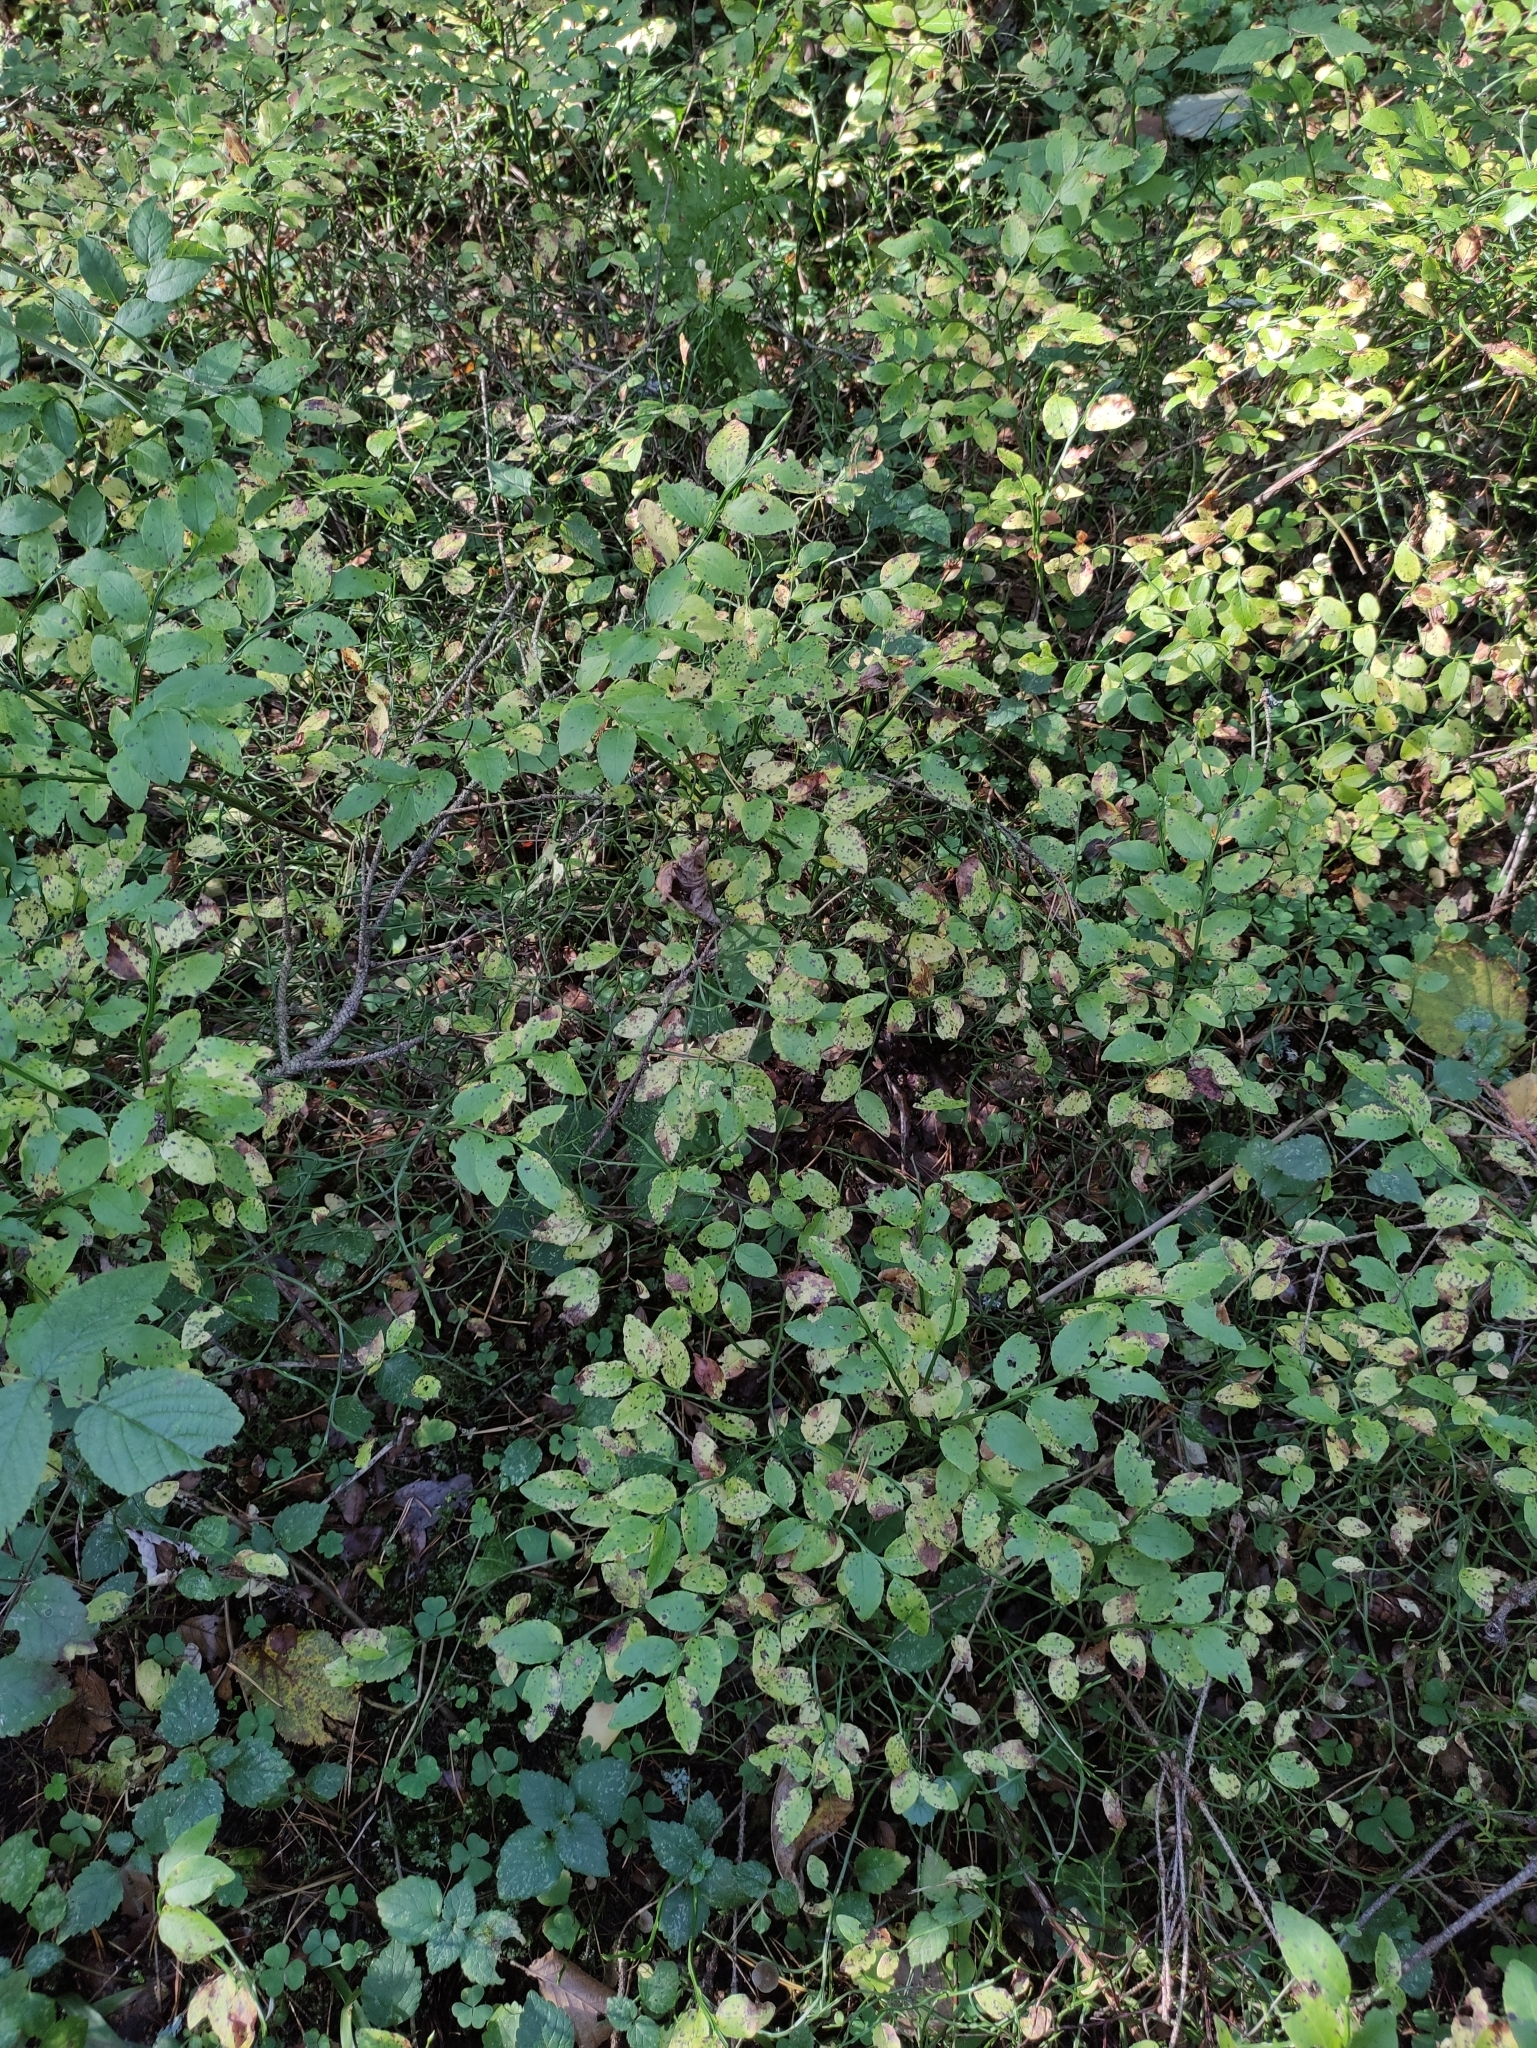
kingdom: Plantae
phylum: Tracheophyta
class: Magnoliopsida
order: Ericales
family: Ericaceae
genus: Vaccinium
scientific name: Vaccinium myrtillus
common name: Bilberry
